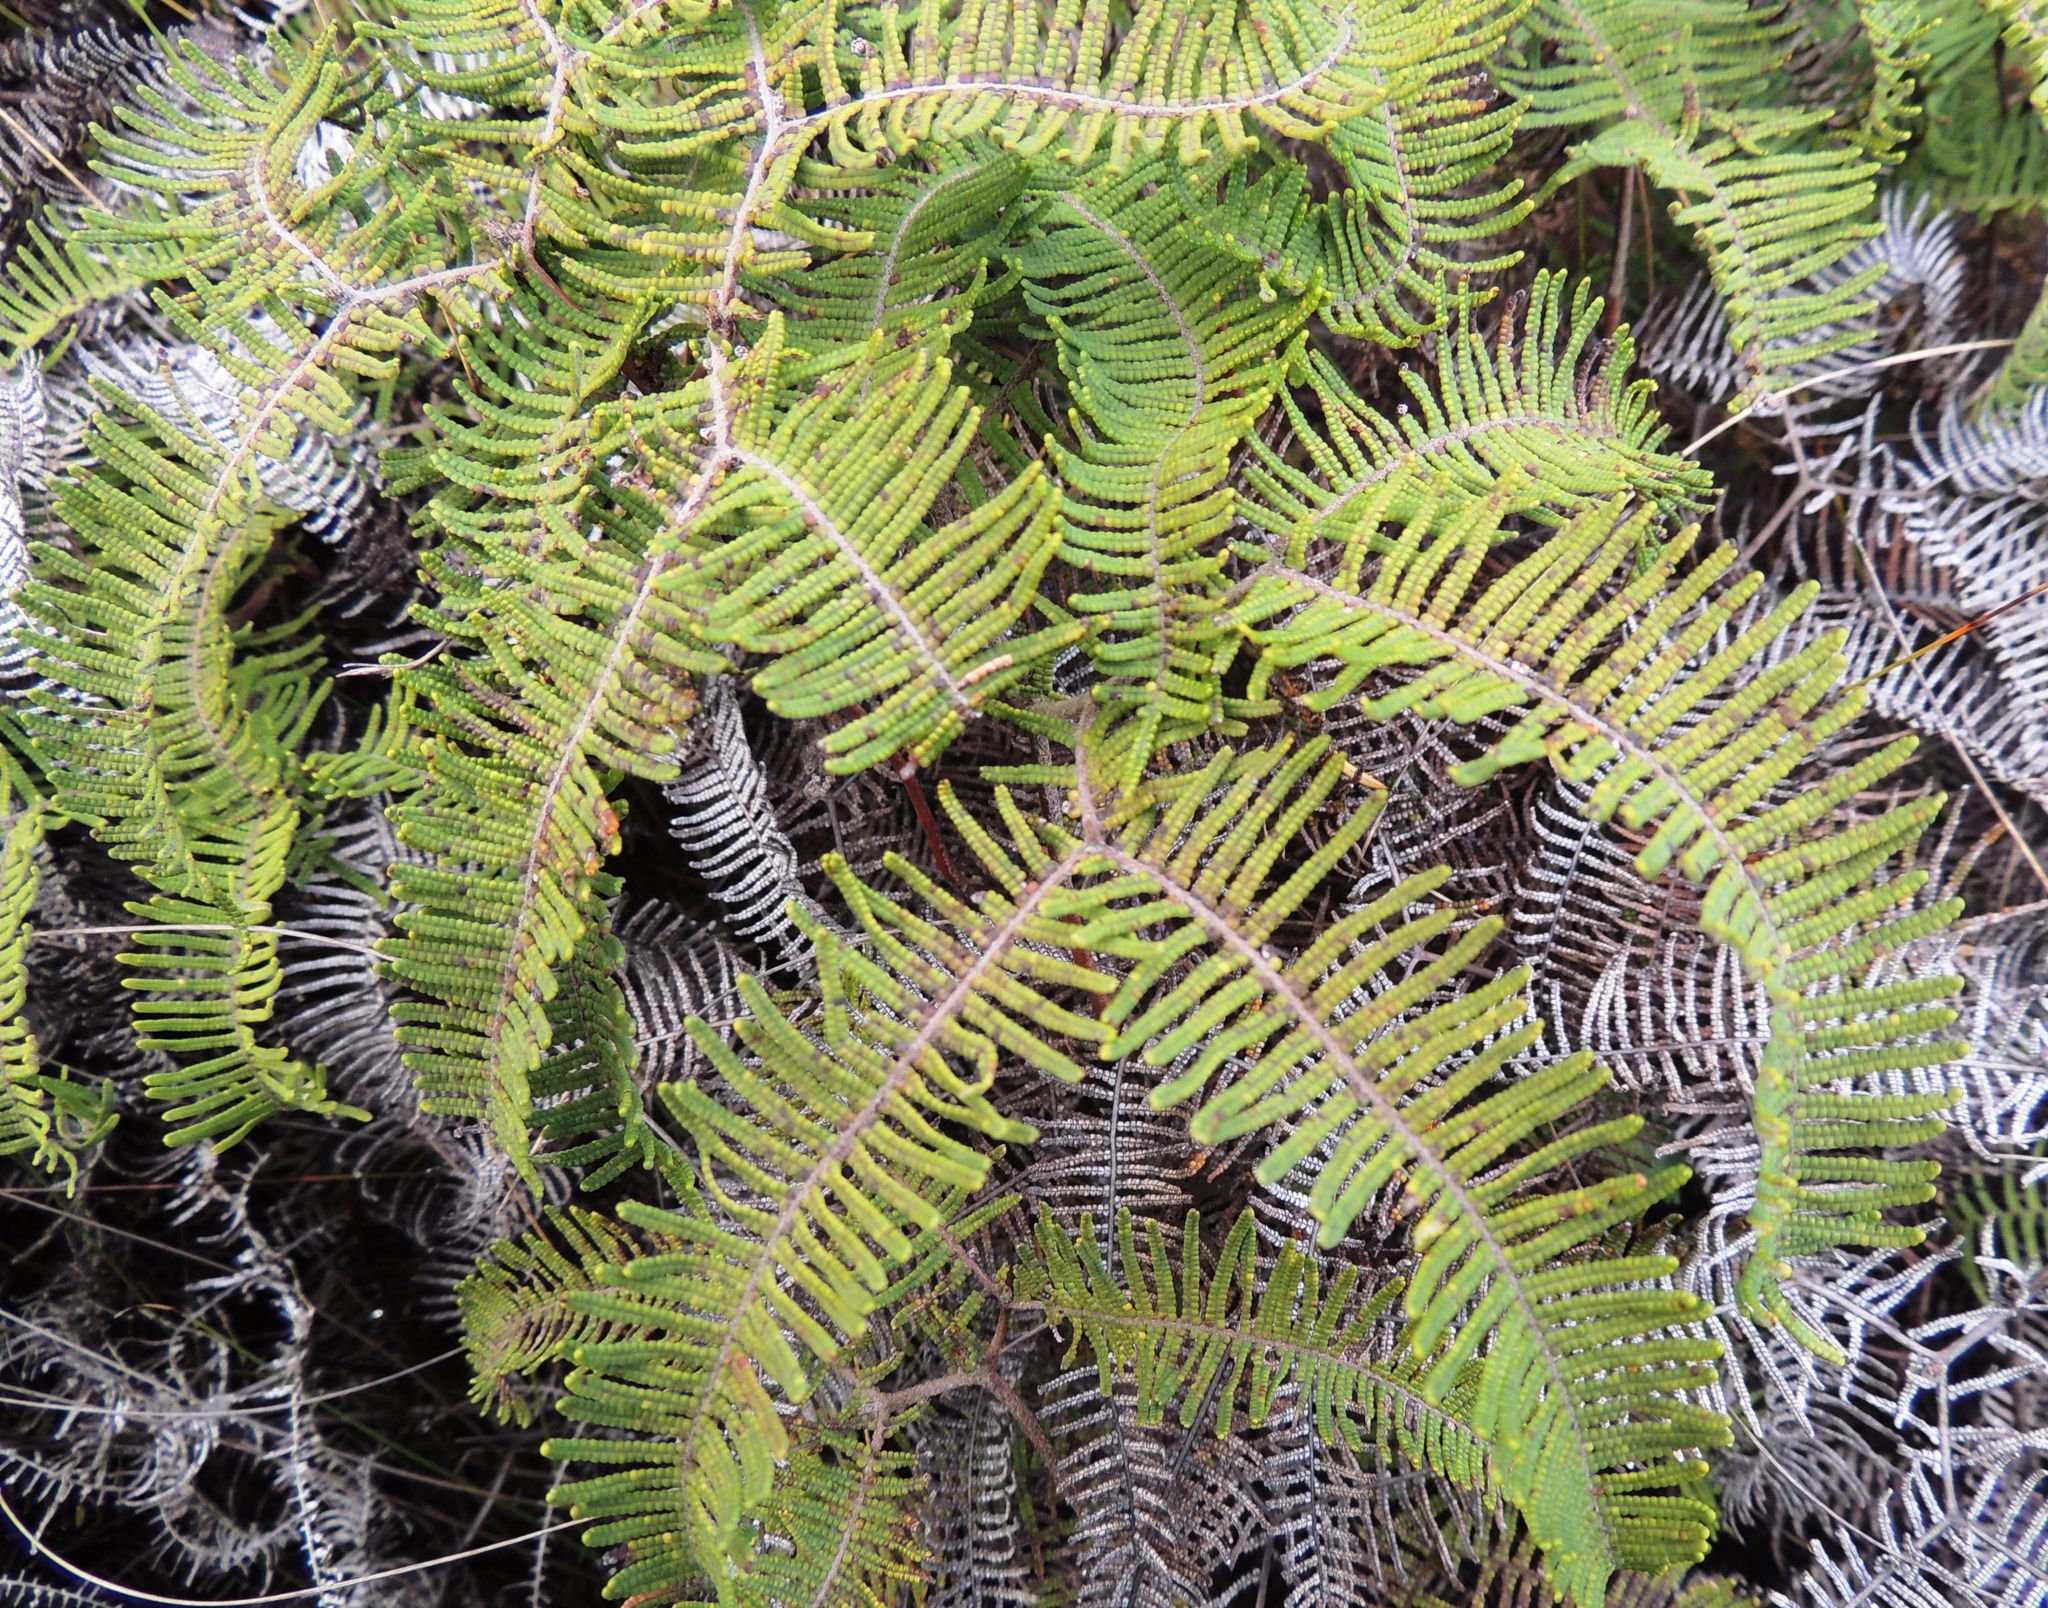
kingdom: Plantae
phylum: Tracheophyta
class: Polypodiopsida
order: Gleicheniales
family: Gleicheniaceae
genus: Gleichenia
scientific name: Gleichenia dicarpa
